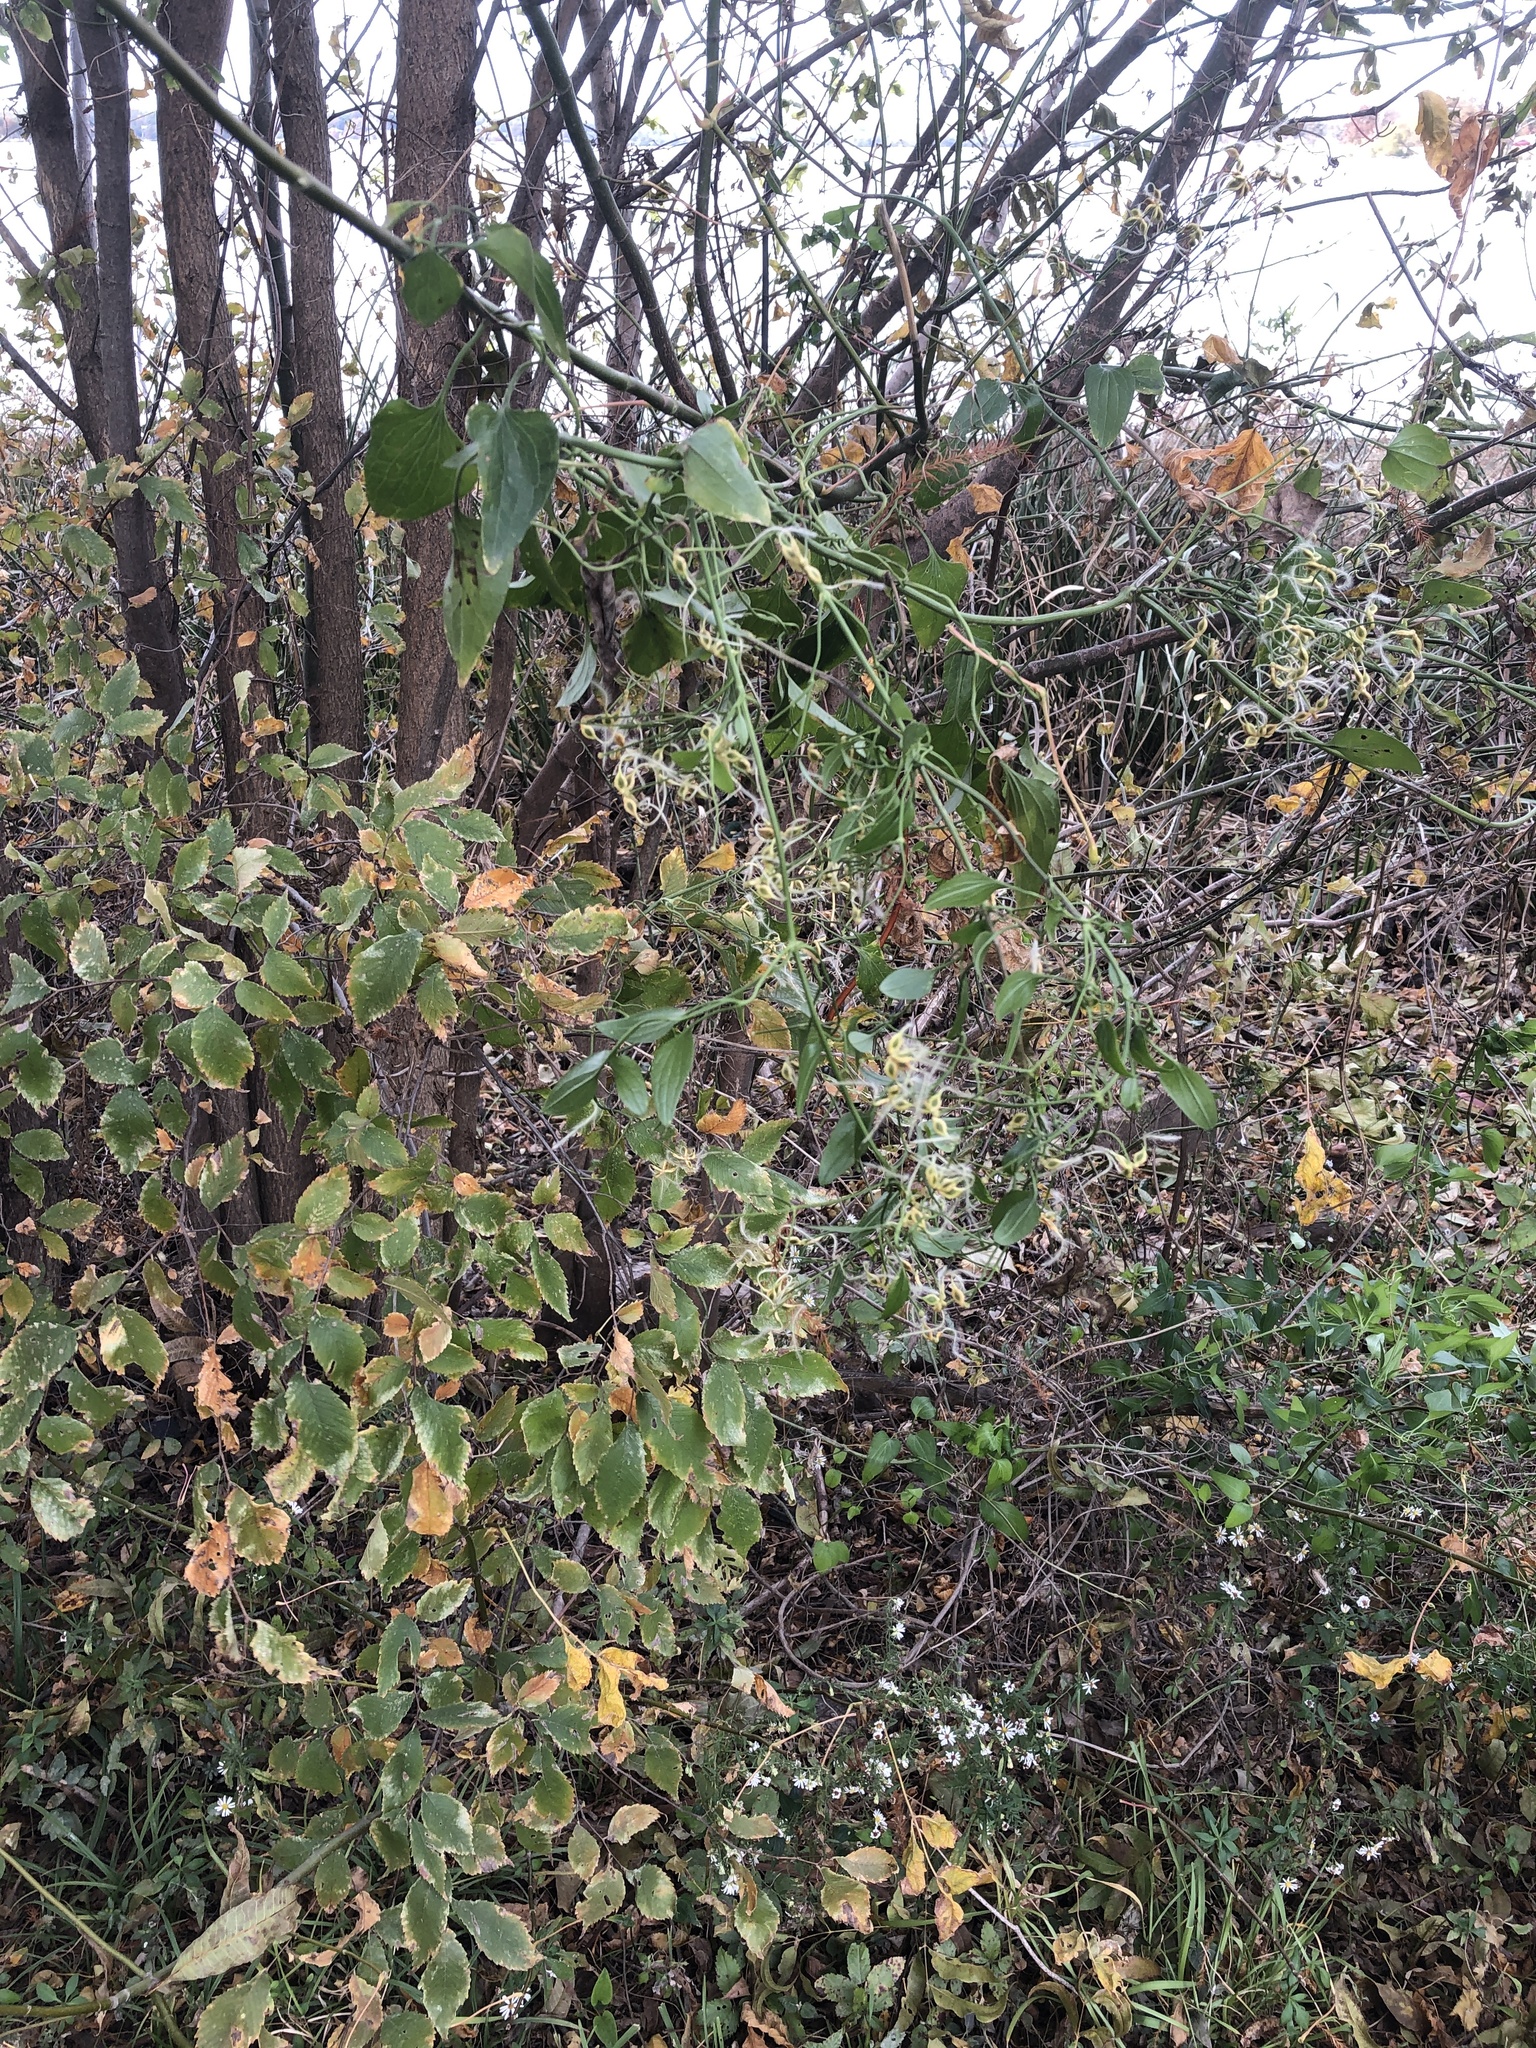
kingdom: Plantae
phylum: Tracheophyta
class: Magnoliopsida
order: Ranunculales
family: Ranunculaceae
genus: Clematis
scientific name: Clematis terniflora
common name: Sweet autumn clematis
